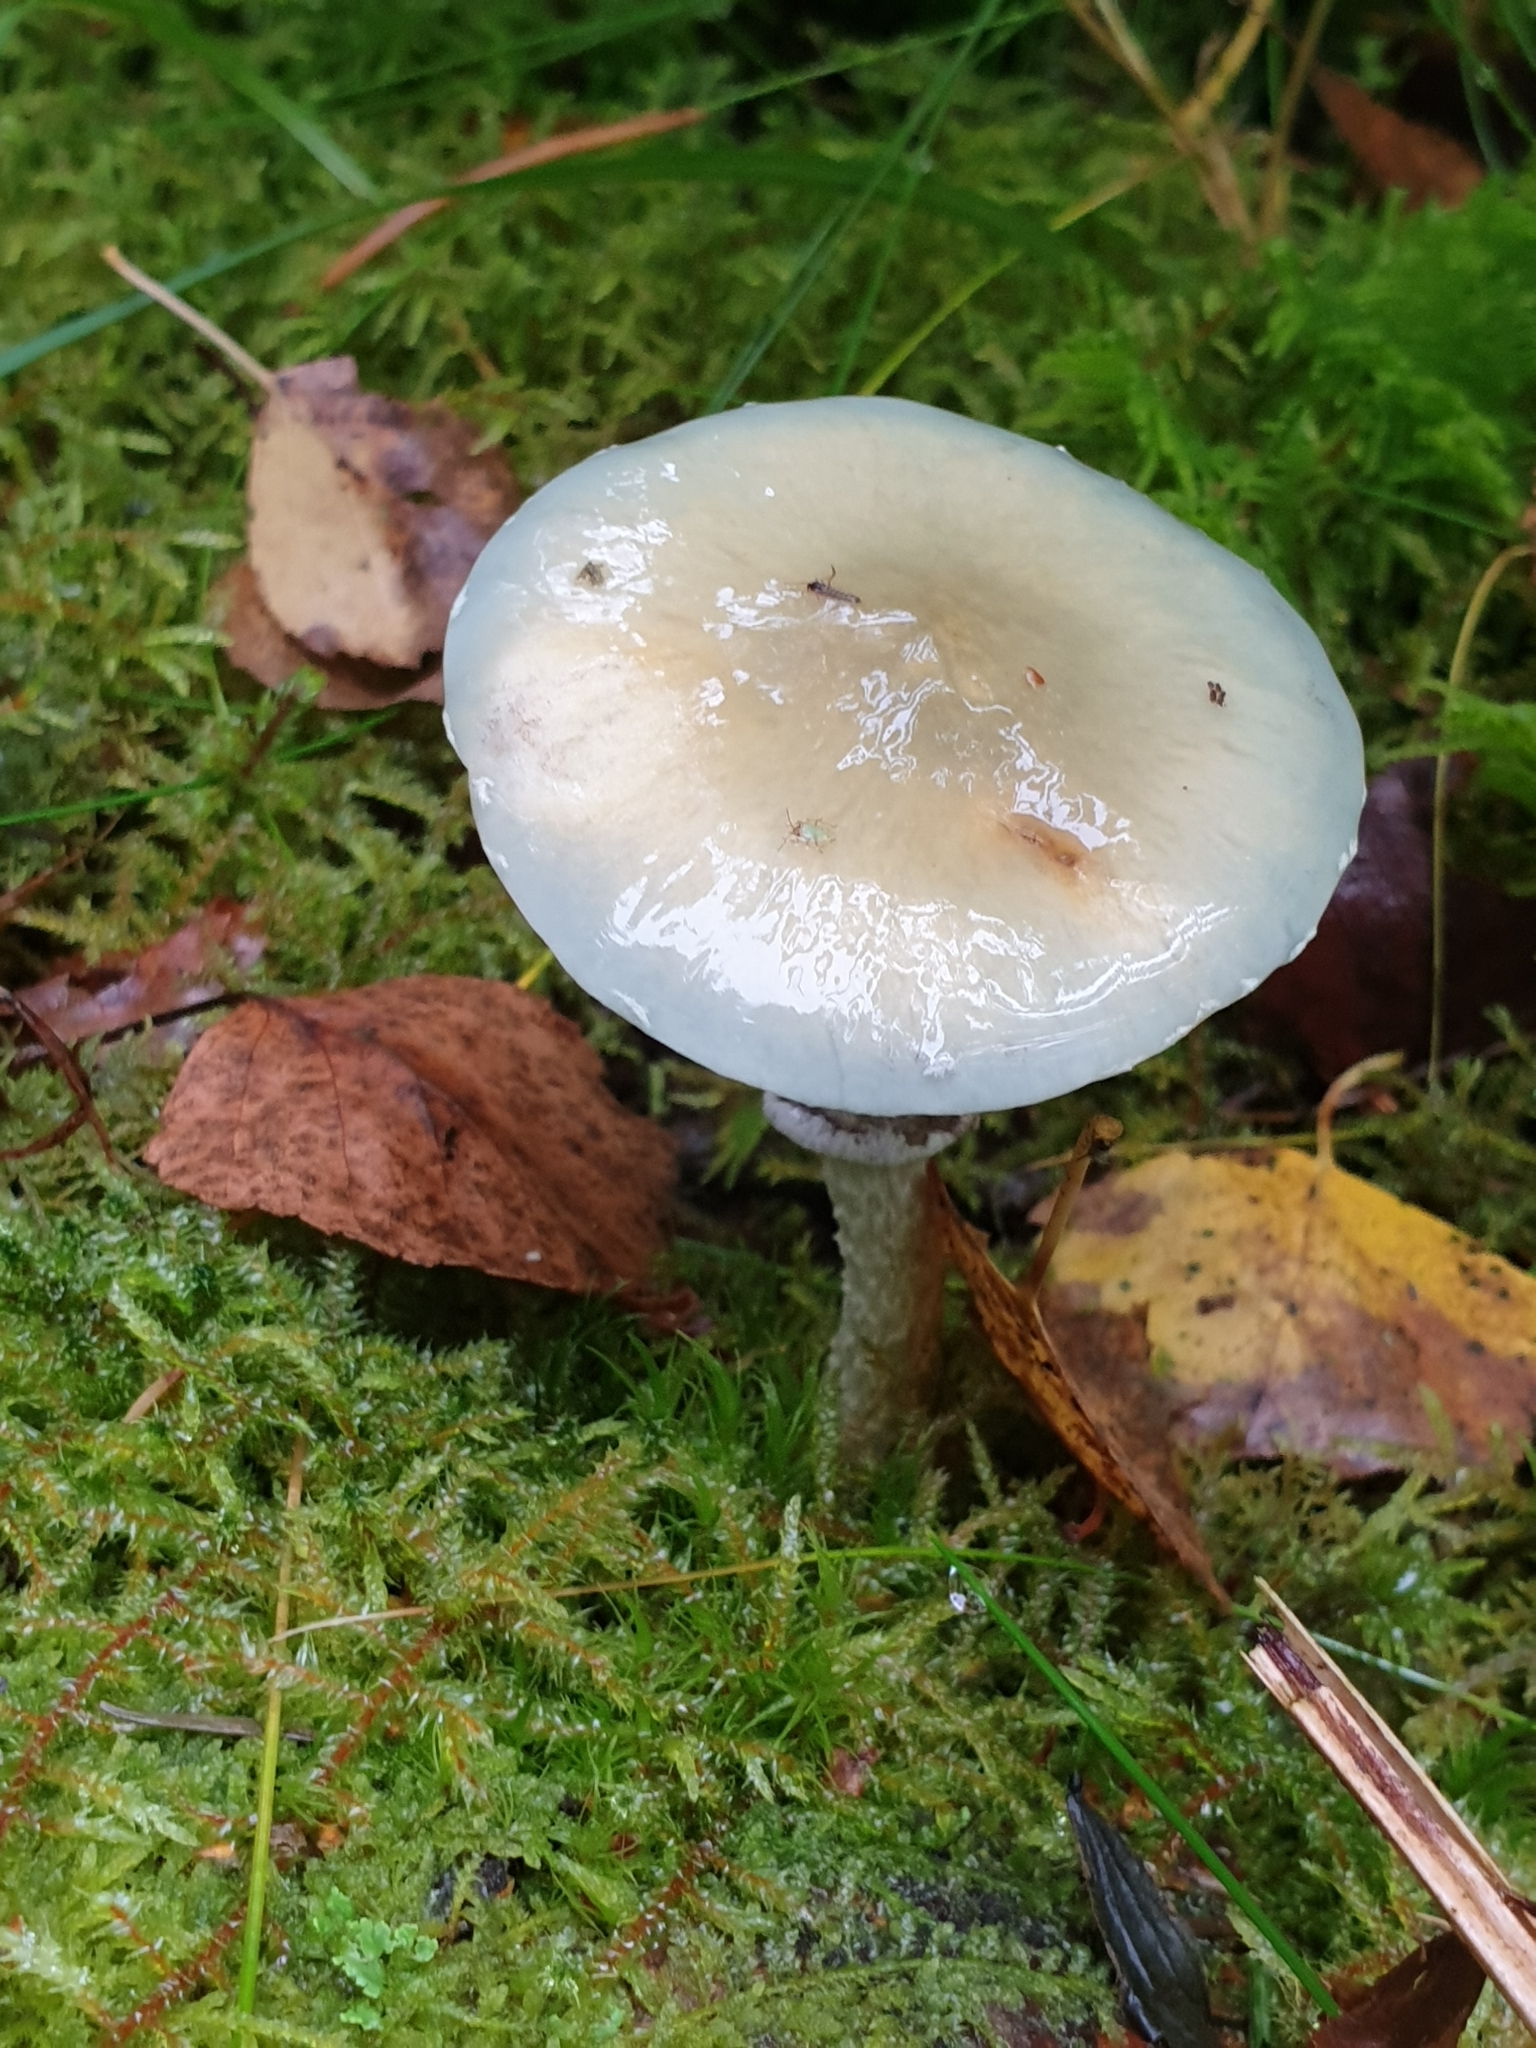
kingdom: Fungi
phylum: Basidiomycota
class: Agaricomycetes
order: Agaricales
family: Strophariaceae
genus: Stropharia
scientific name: Stropharia aeruginosa
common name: Verdigris roundhead
